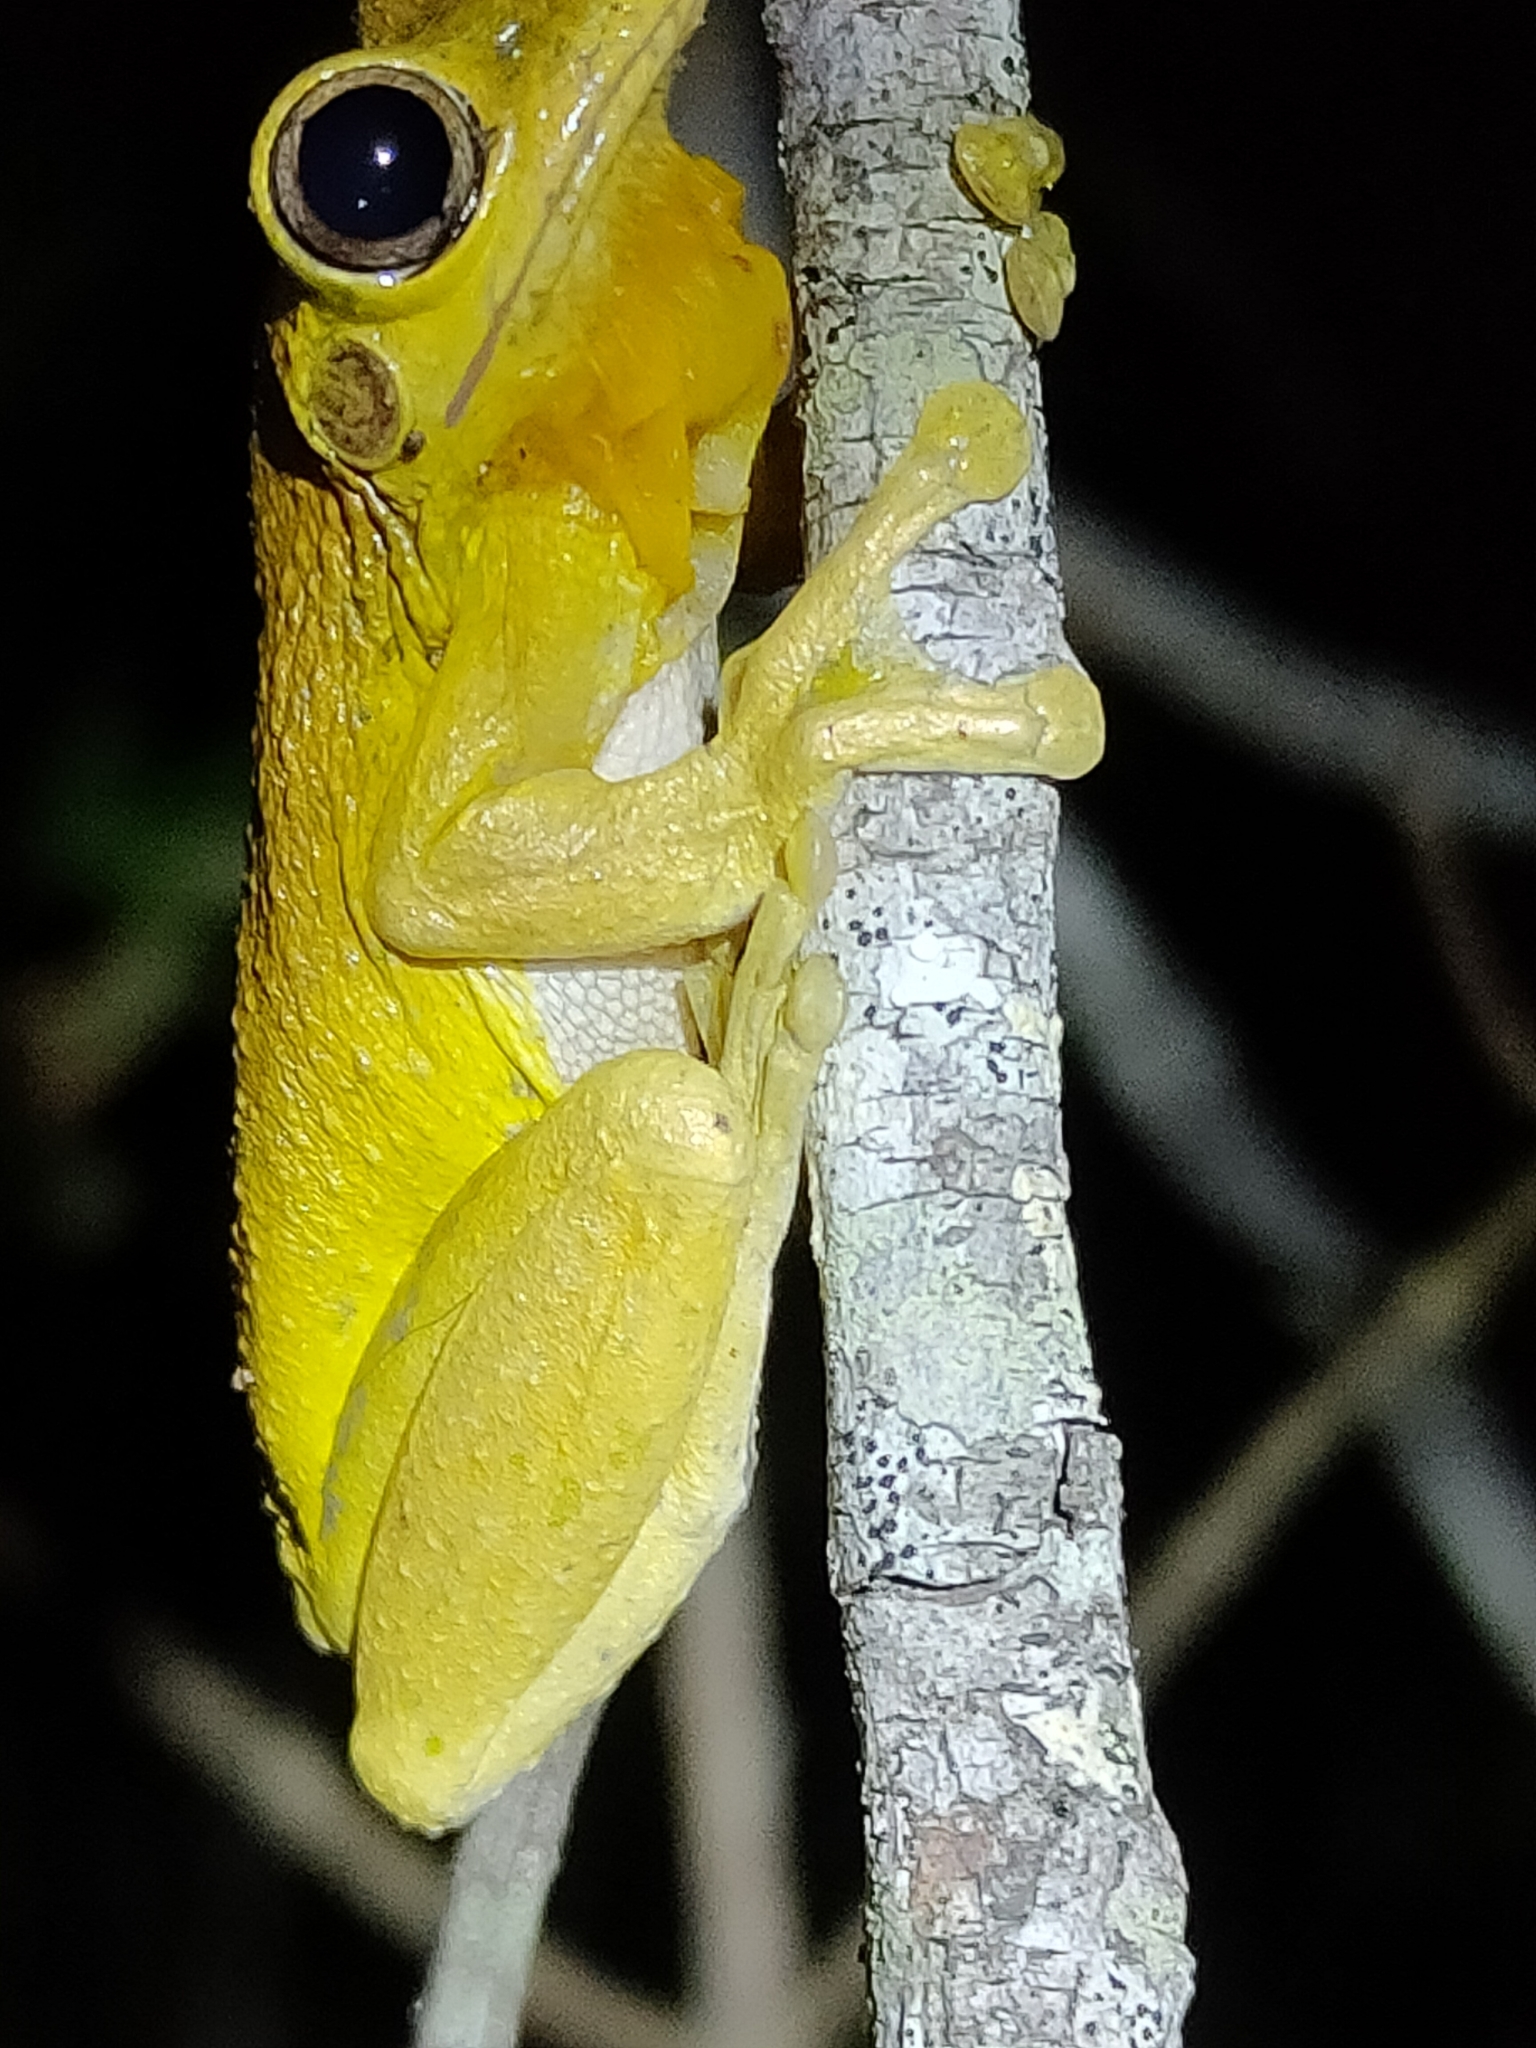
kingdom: Animalia
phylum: Chordata
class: Amphibia
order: Anura
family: Pelodryadidae
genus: Litoria
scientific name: Litoria tyleri
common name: Laughing tree frog
